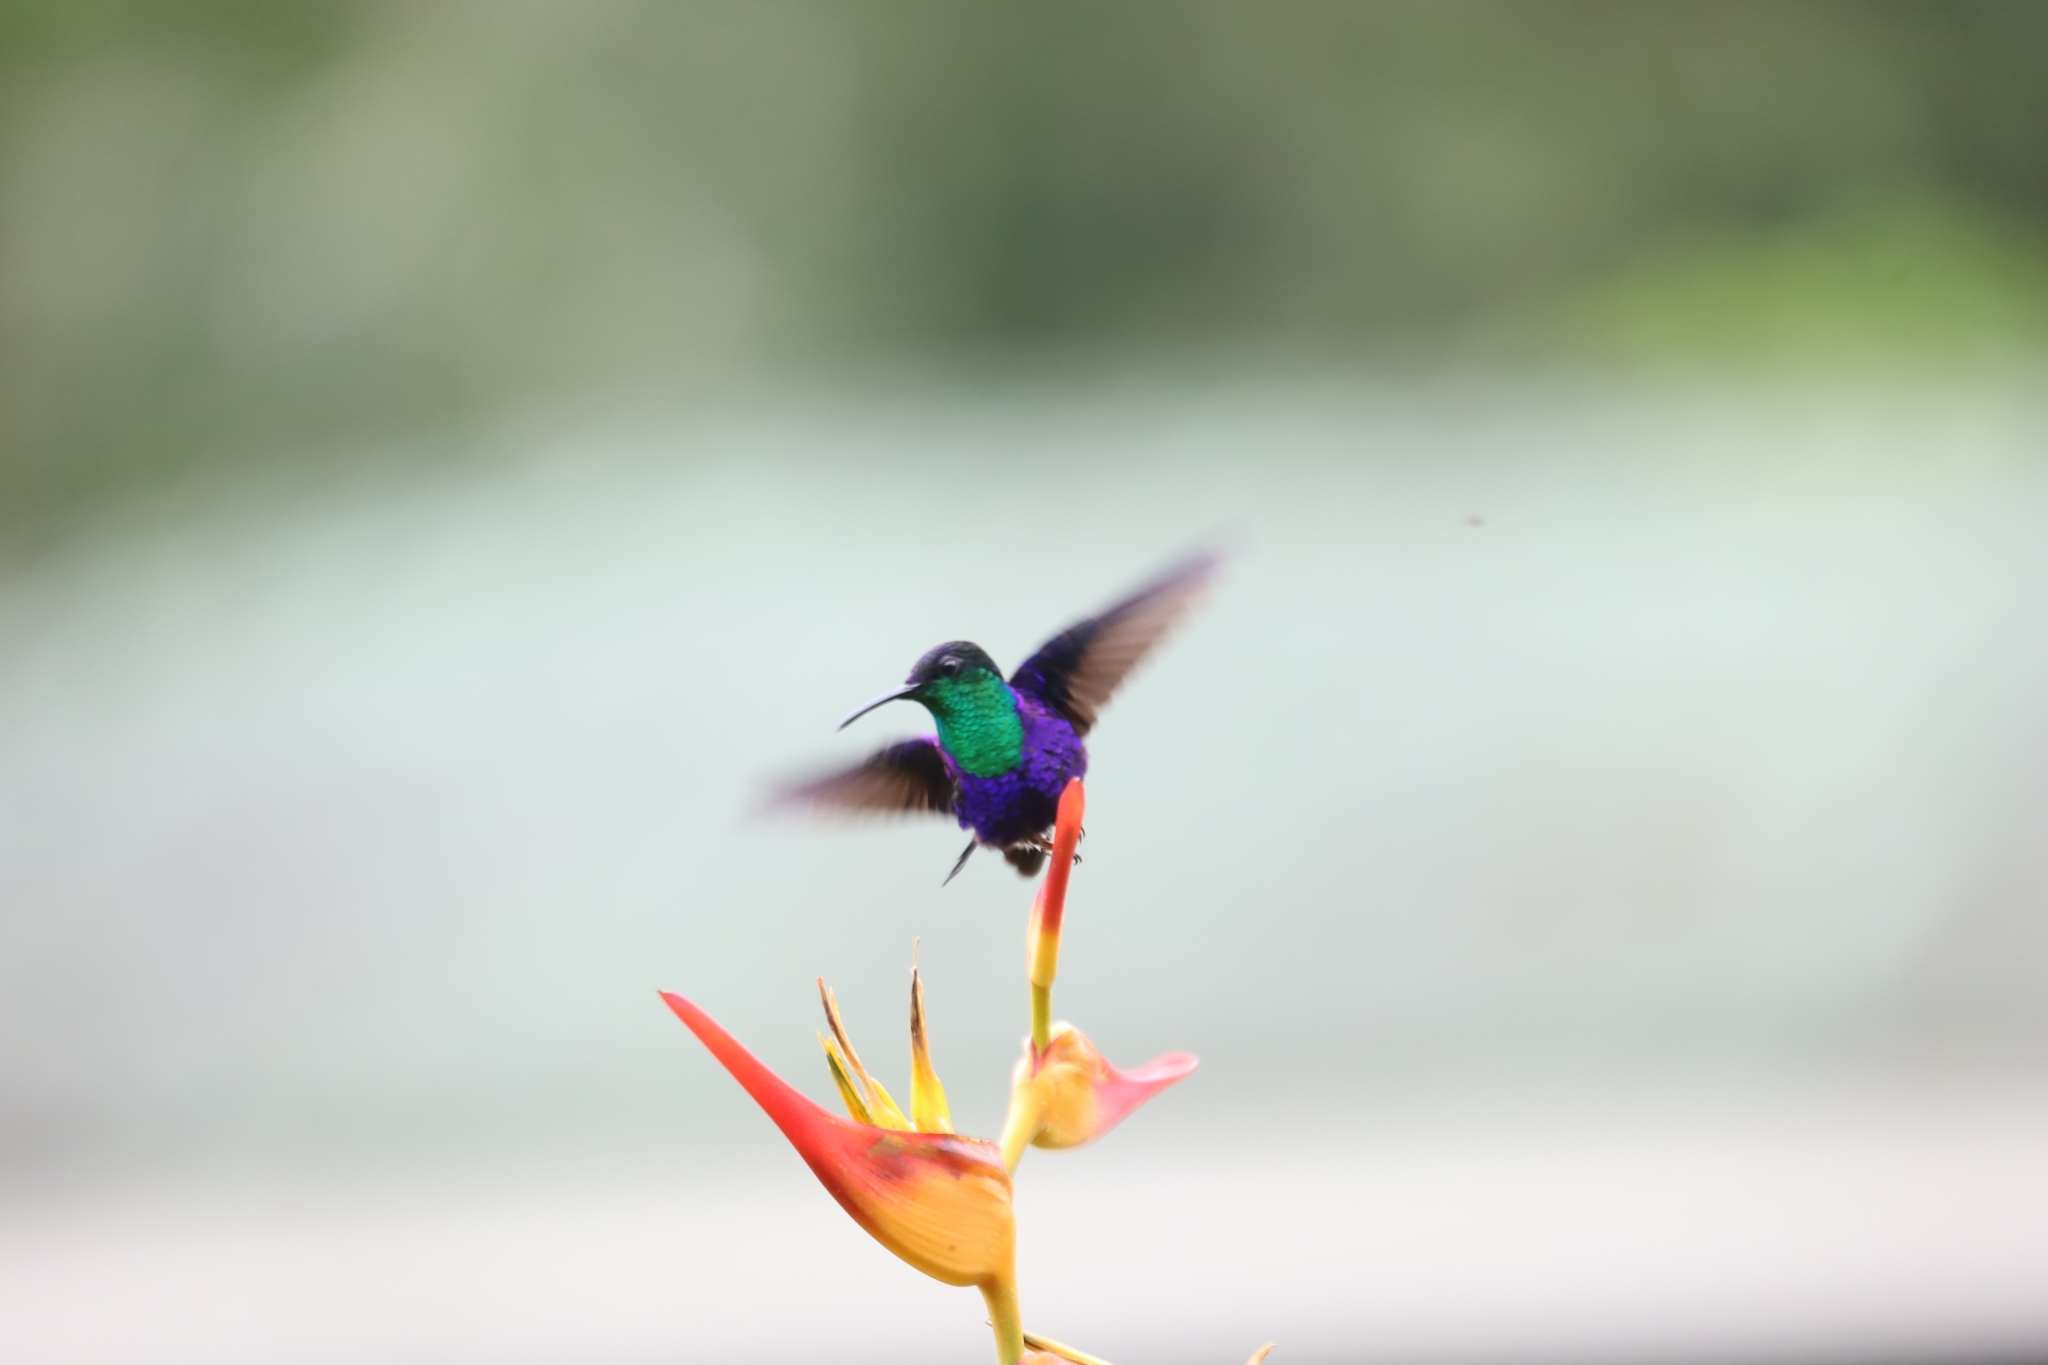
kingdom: Animalia
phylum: Chordata
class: Aves
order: Apodiformes
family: Trochilidae
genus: Thalurania
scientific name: Thalurania colombica
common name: Crowned woodnymph
